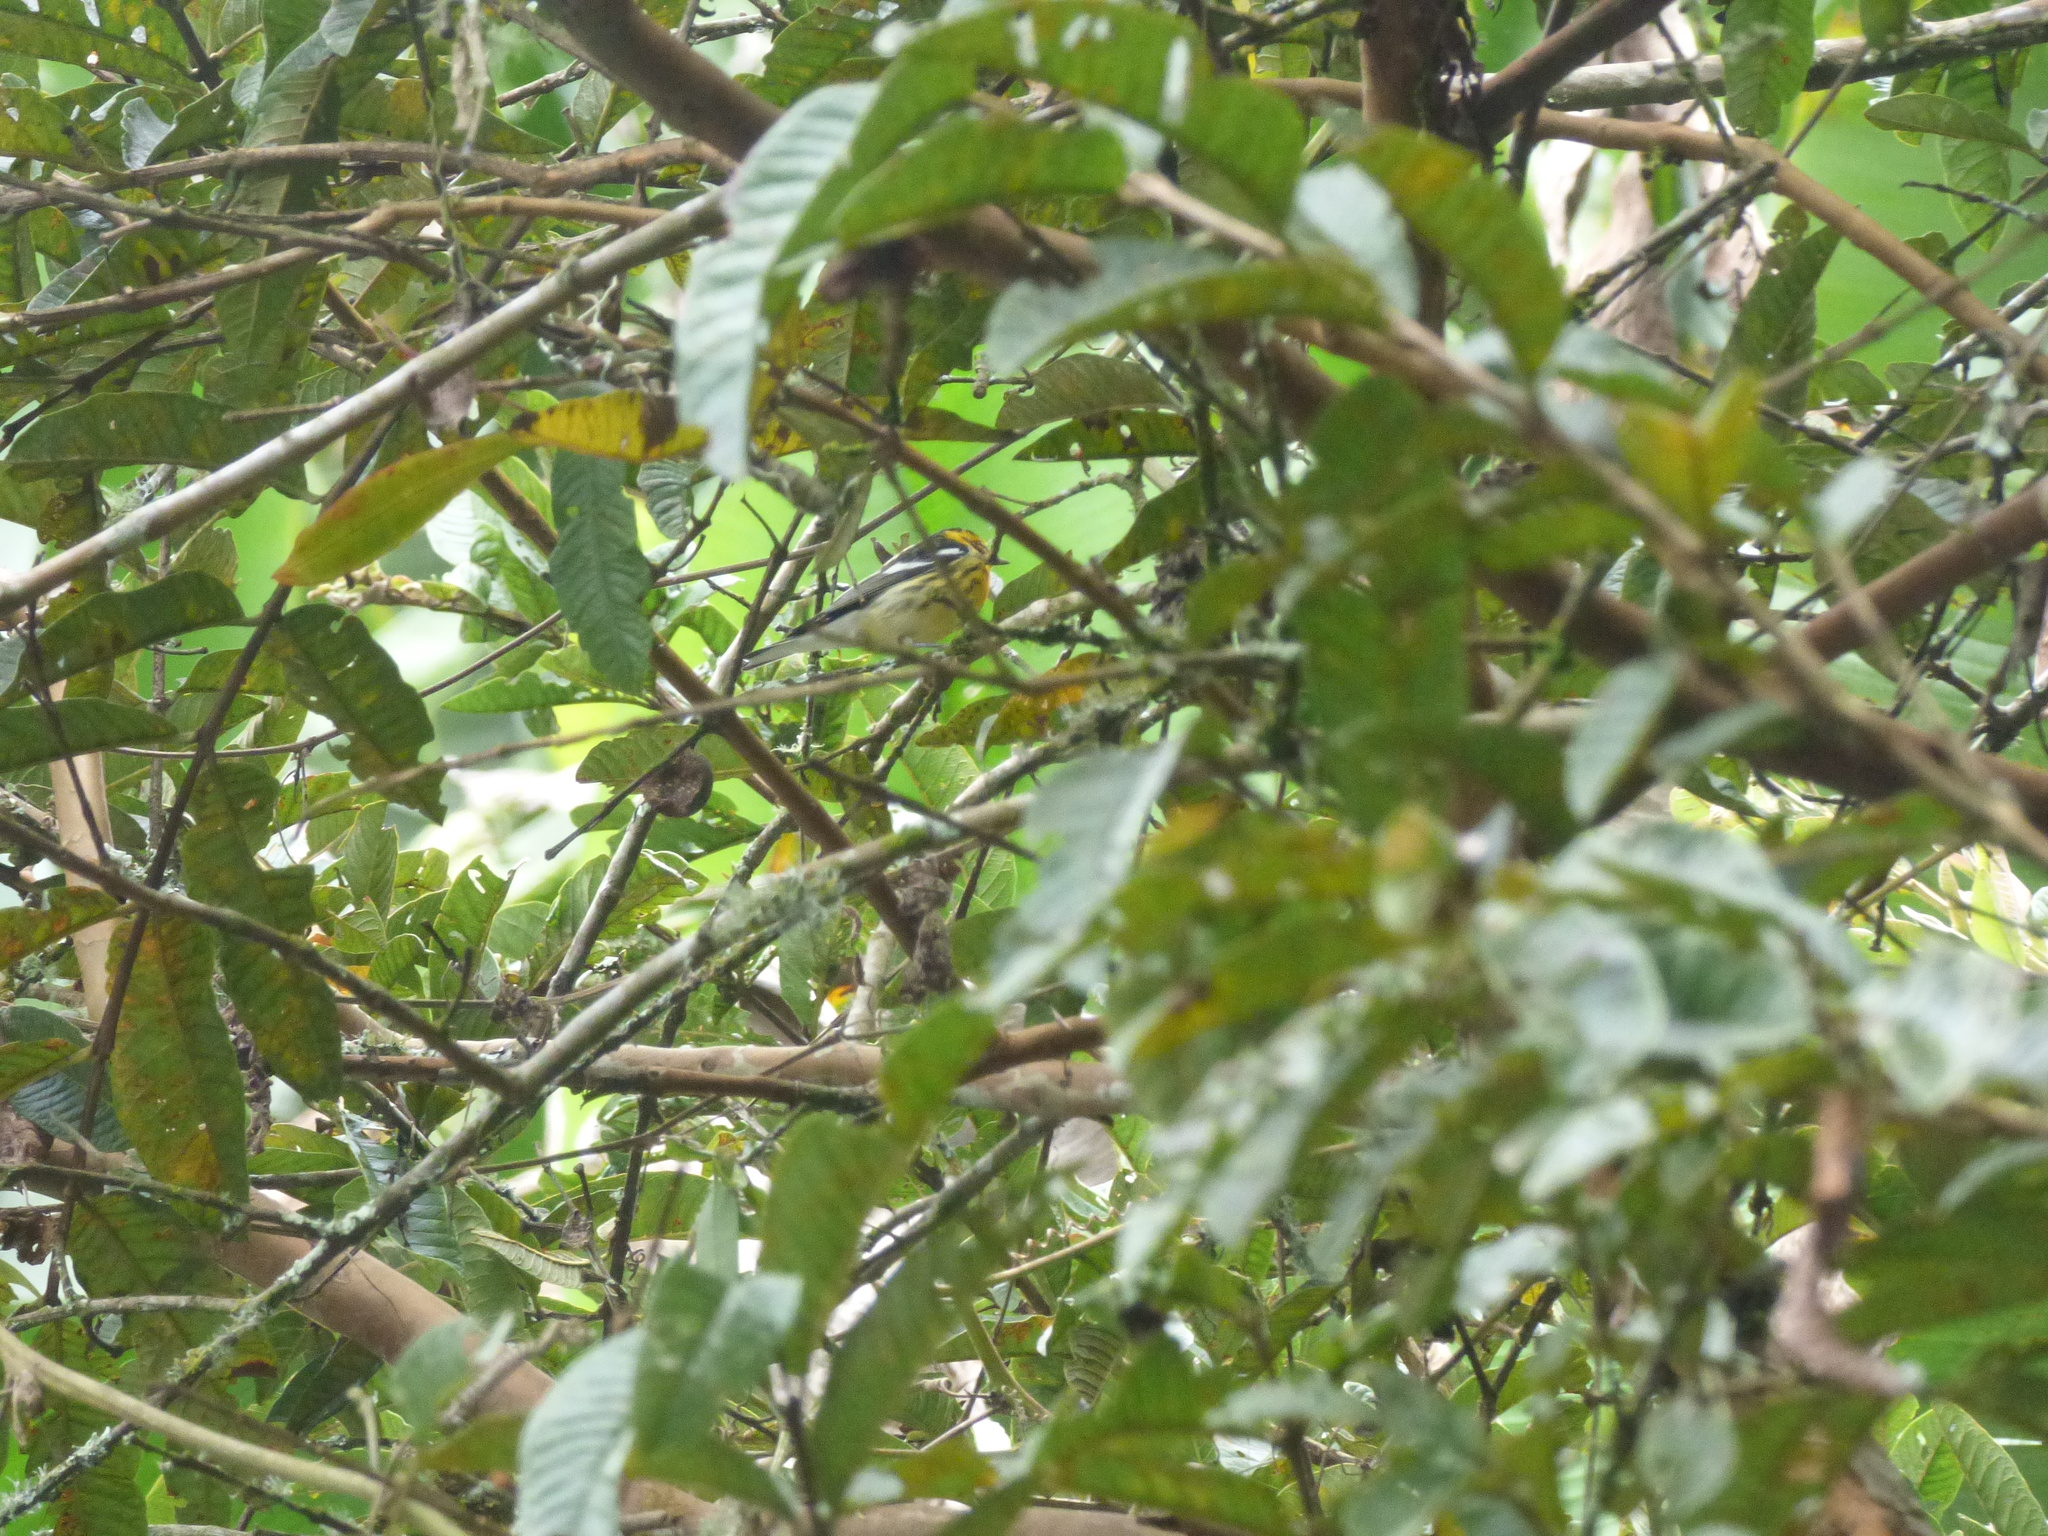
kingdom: Animalia
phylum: Chordata
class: Aves
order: Passeriformes
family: Parulidae
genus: Setophaga
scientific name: Setophaga fusca
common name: Blackburnian warbler
